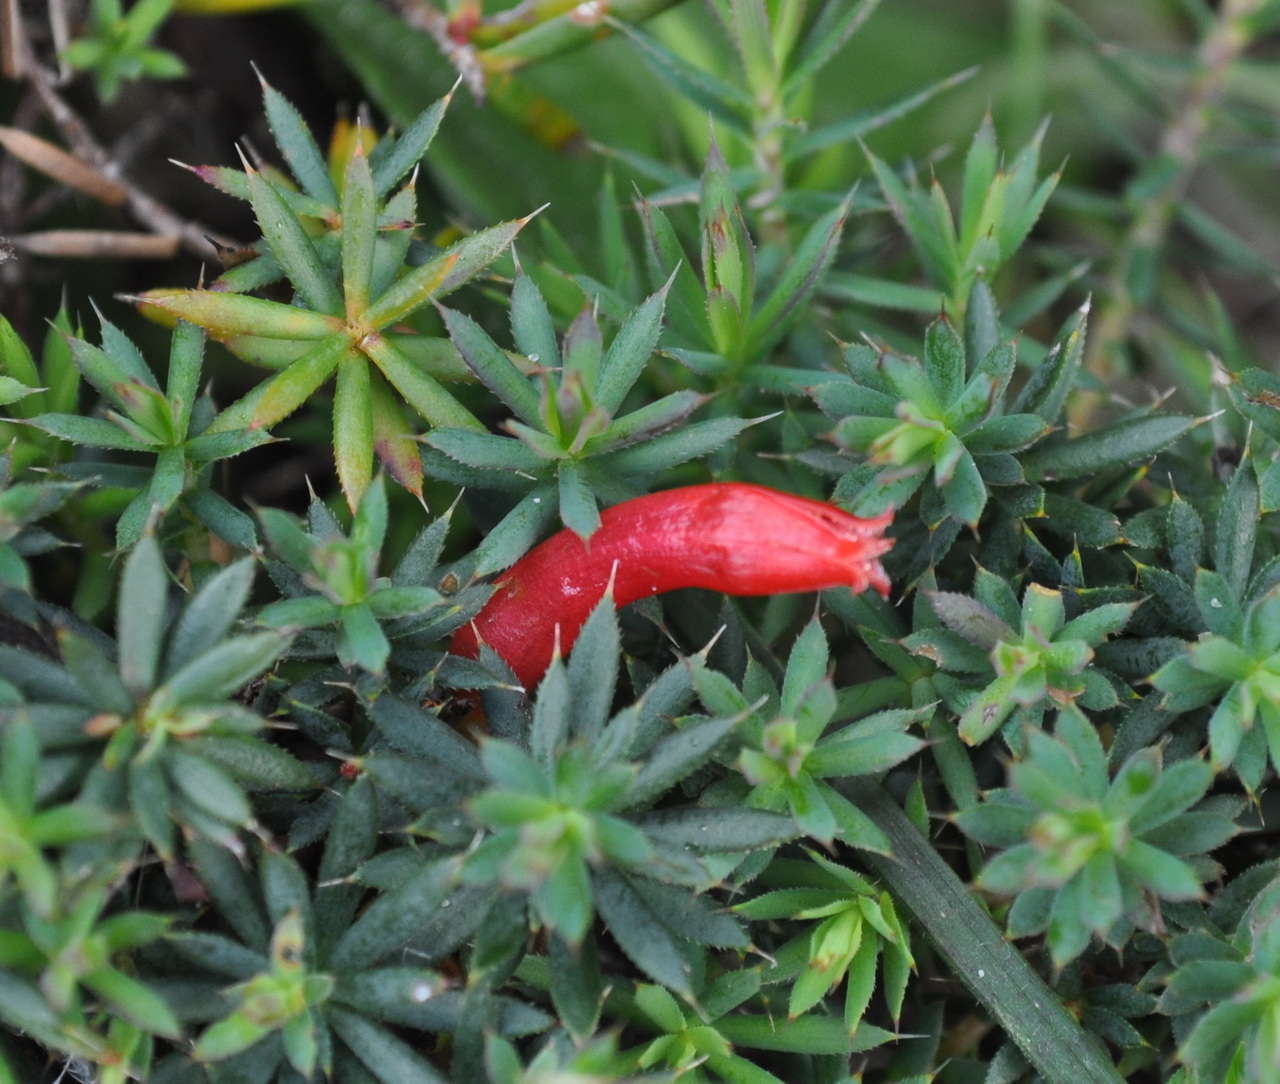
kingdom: Plantae
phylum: Tracheophyta
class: Magnoliopsida
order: Ericales
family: Ericaceae
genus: Styphelia
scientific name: Styphelia humifusa
